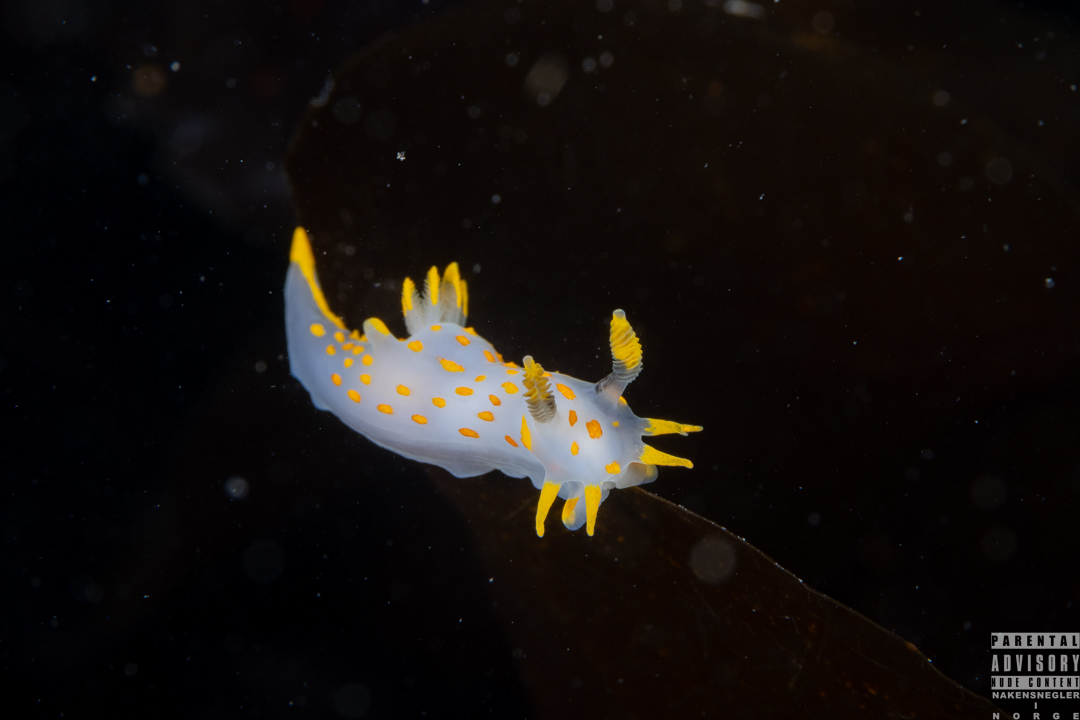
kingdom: Animalia
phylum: Mollusca
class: Gastropoda
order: Nudibranchia
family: Polyceridae
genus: Polycera
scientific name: Polycera quadrilineata
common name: Four-striped polycera
